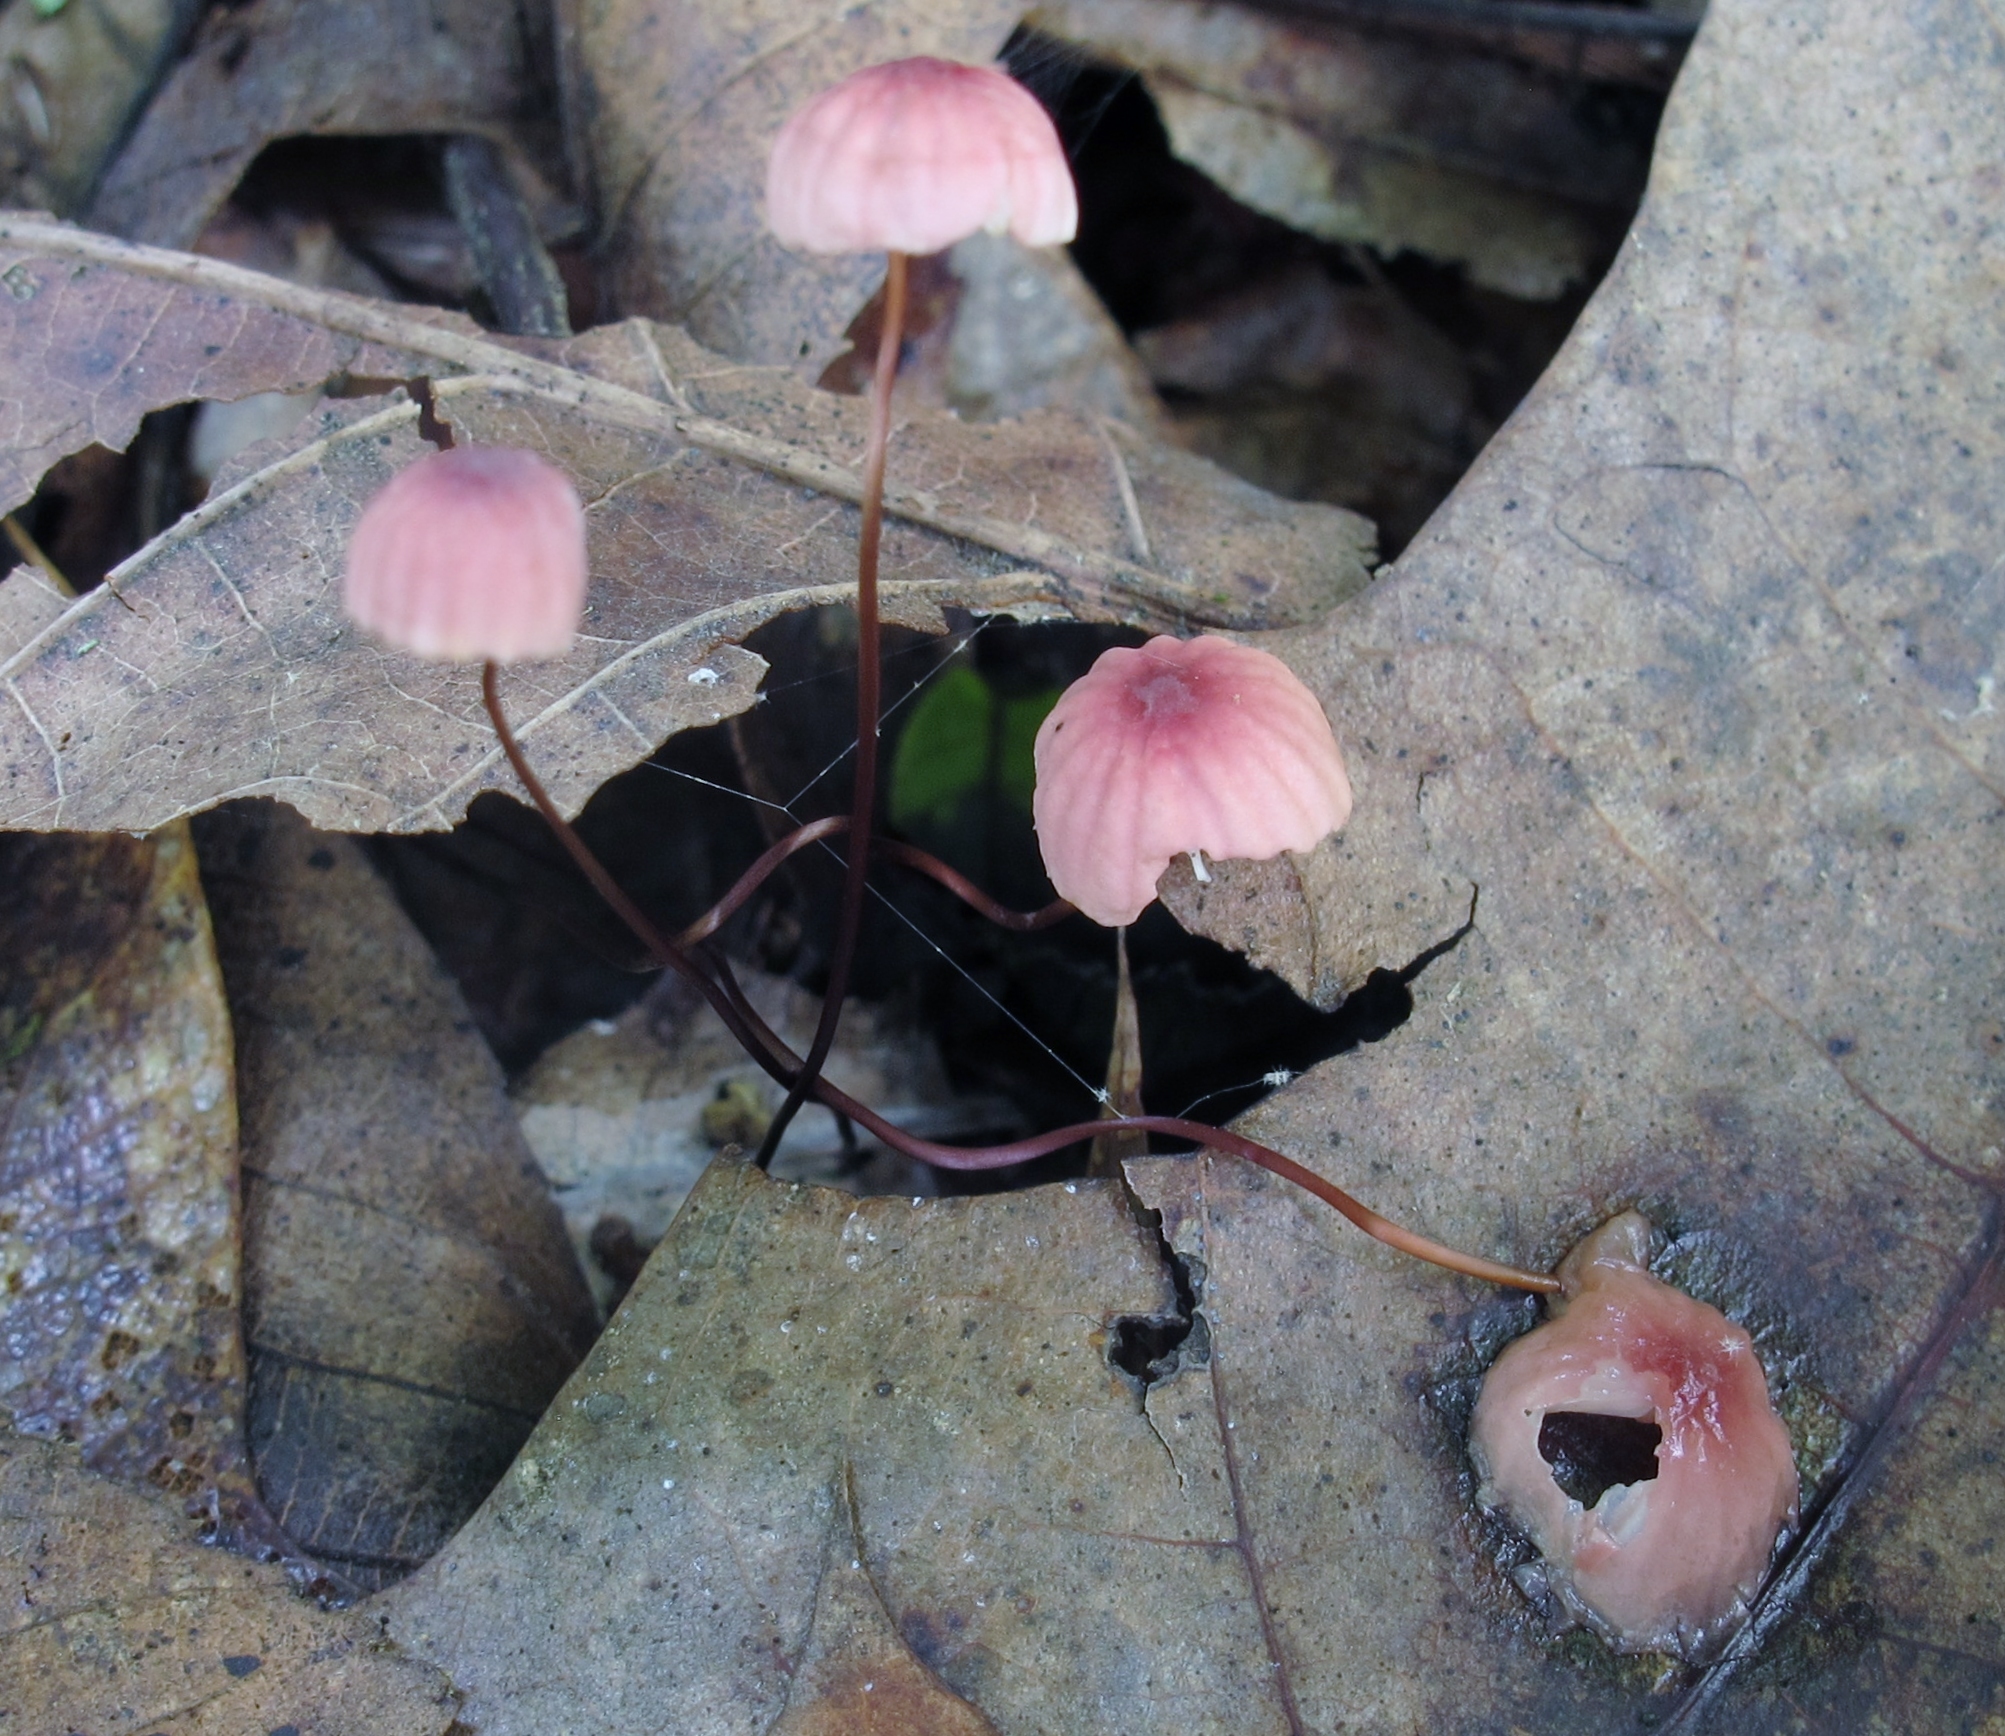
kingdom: Fungi
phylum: Basidiomycota
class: Agaricomycetes
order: Agaricales
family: Marasmiaceae
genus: Marasmius
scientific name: Marasmius pulcherripes
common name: Rosy parachute
